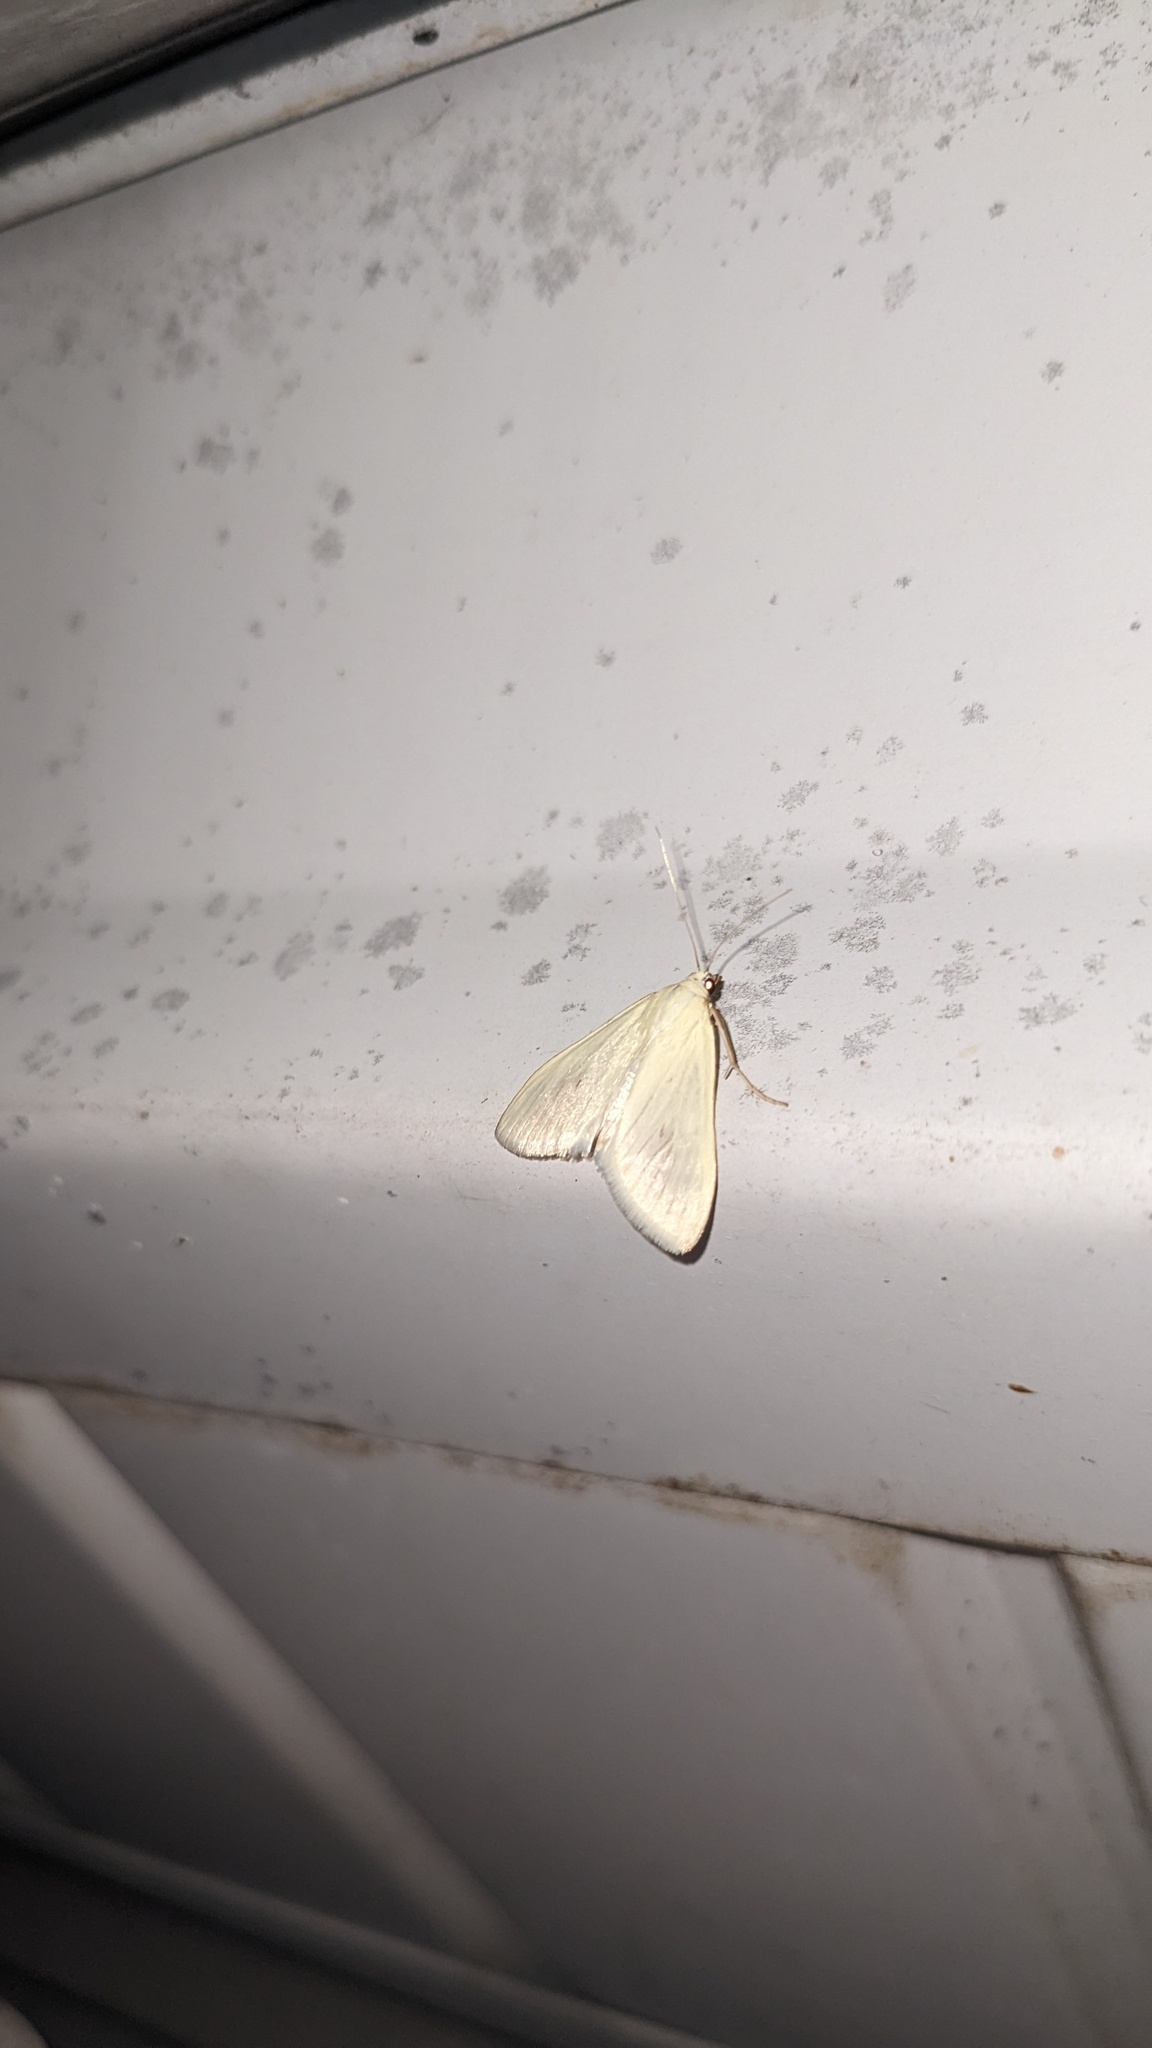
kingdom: Animalia
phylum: Arthropoda
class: Insecta
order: Lepidoptera
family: Crambidae
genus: Sitochroa
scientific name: Sitochroa palealis
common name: Greenish-yellow sitochroa moth
